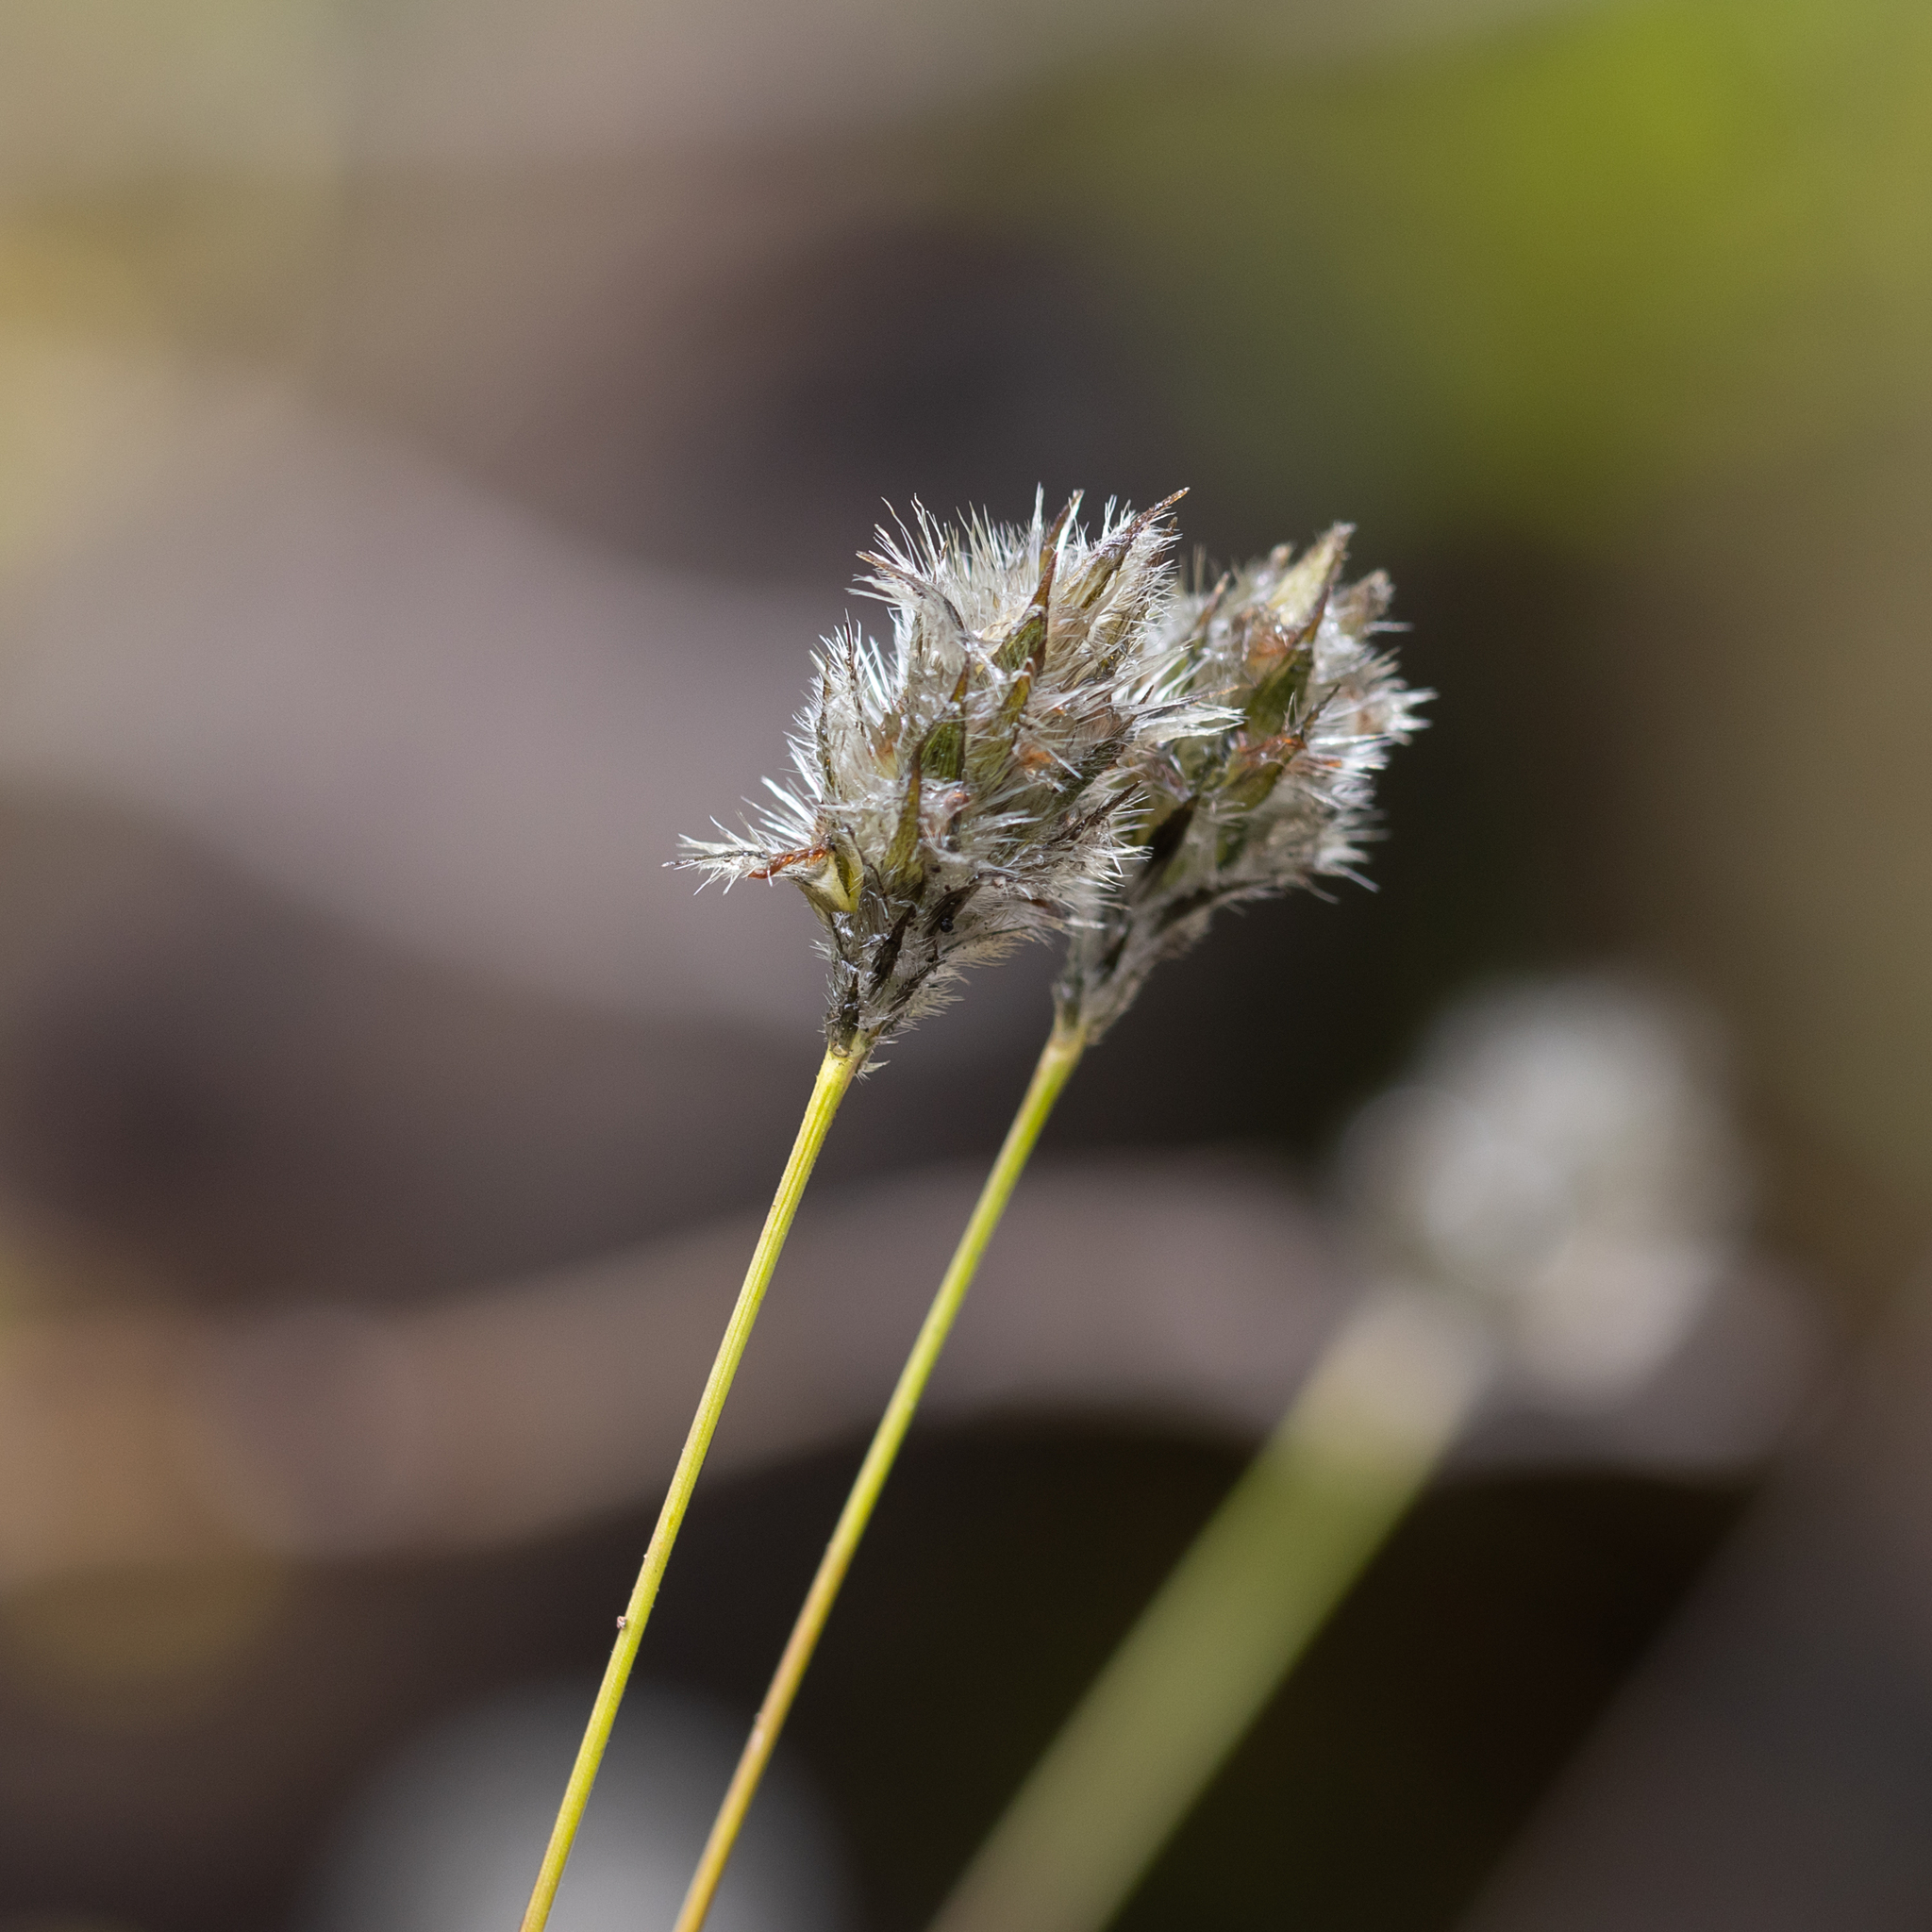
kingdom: Plantae
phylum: Tracheophyta
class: Liliopsida
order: Poales
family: Poaceae
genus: Neurachne
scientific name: Neurachne alopecuroidea
